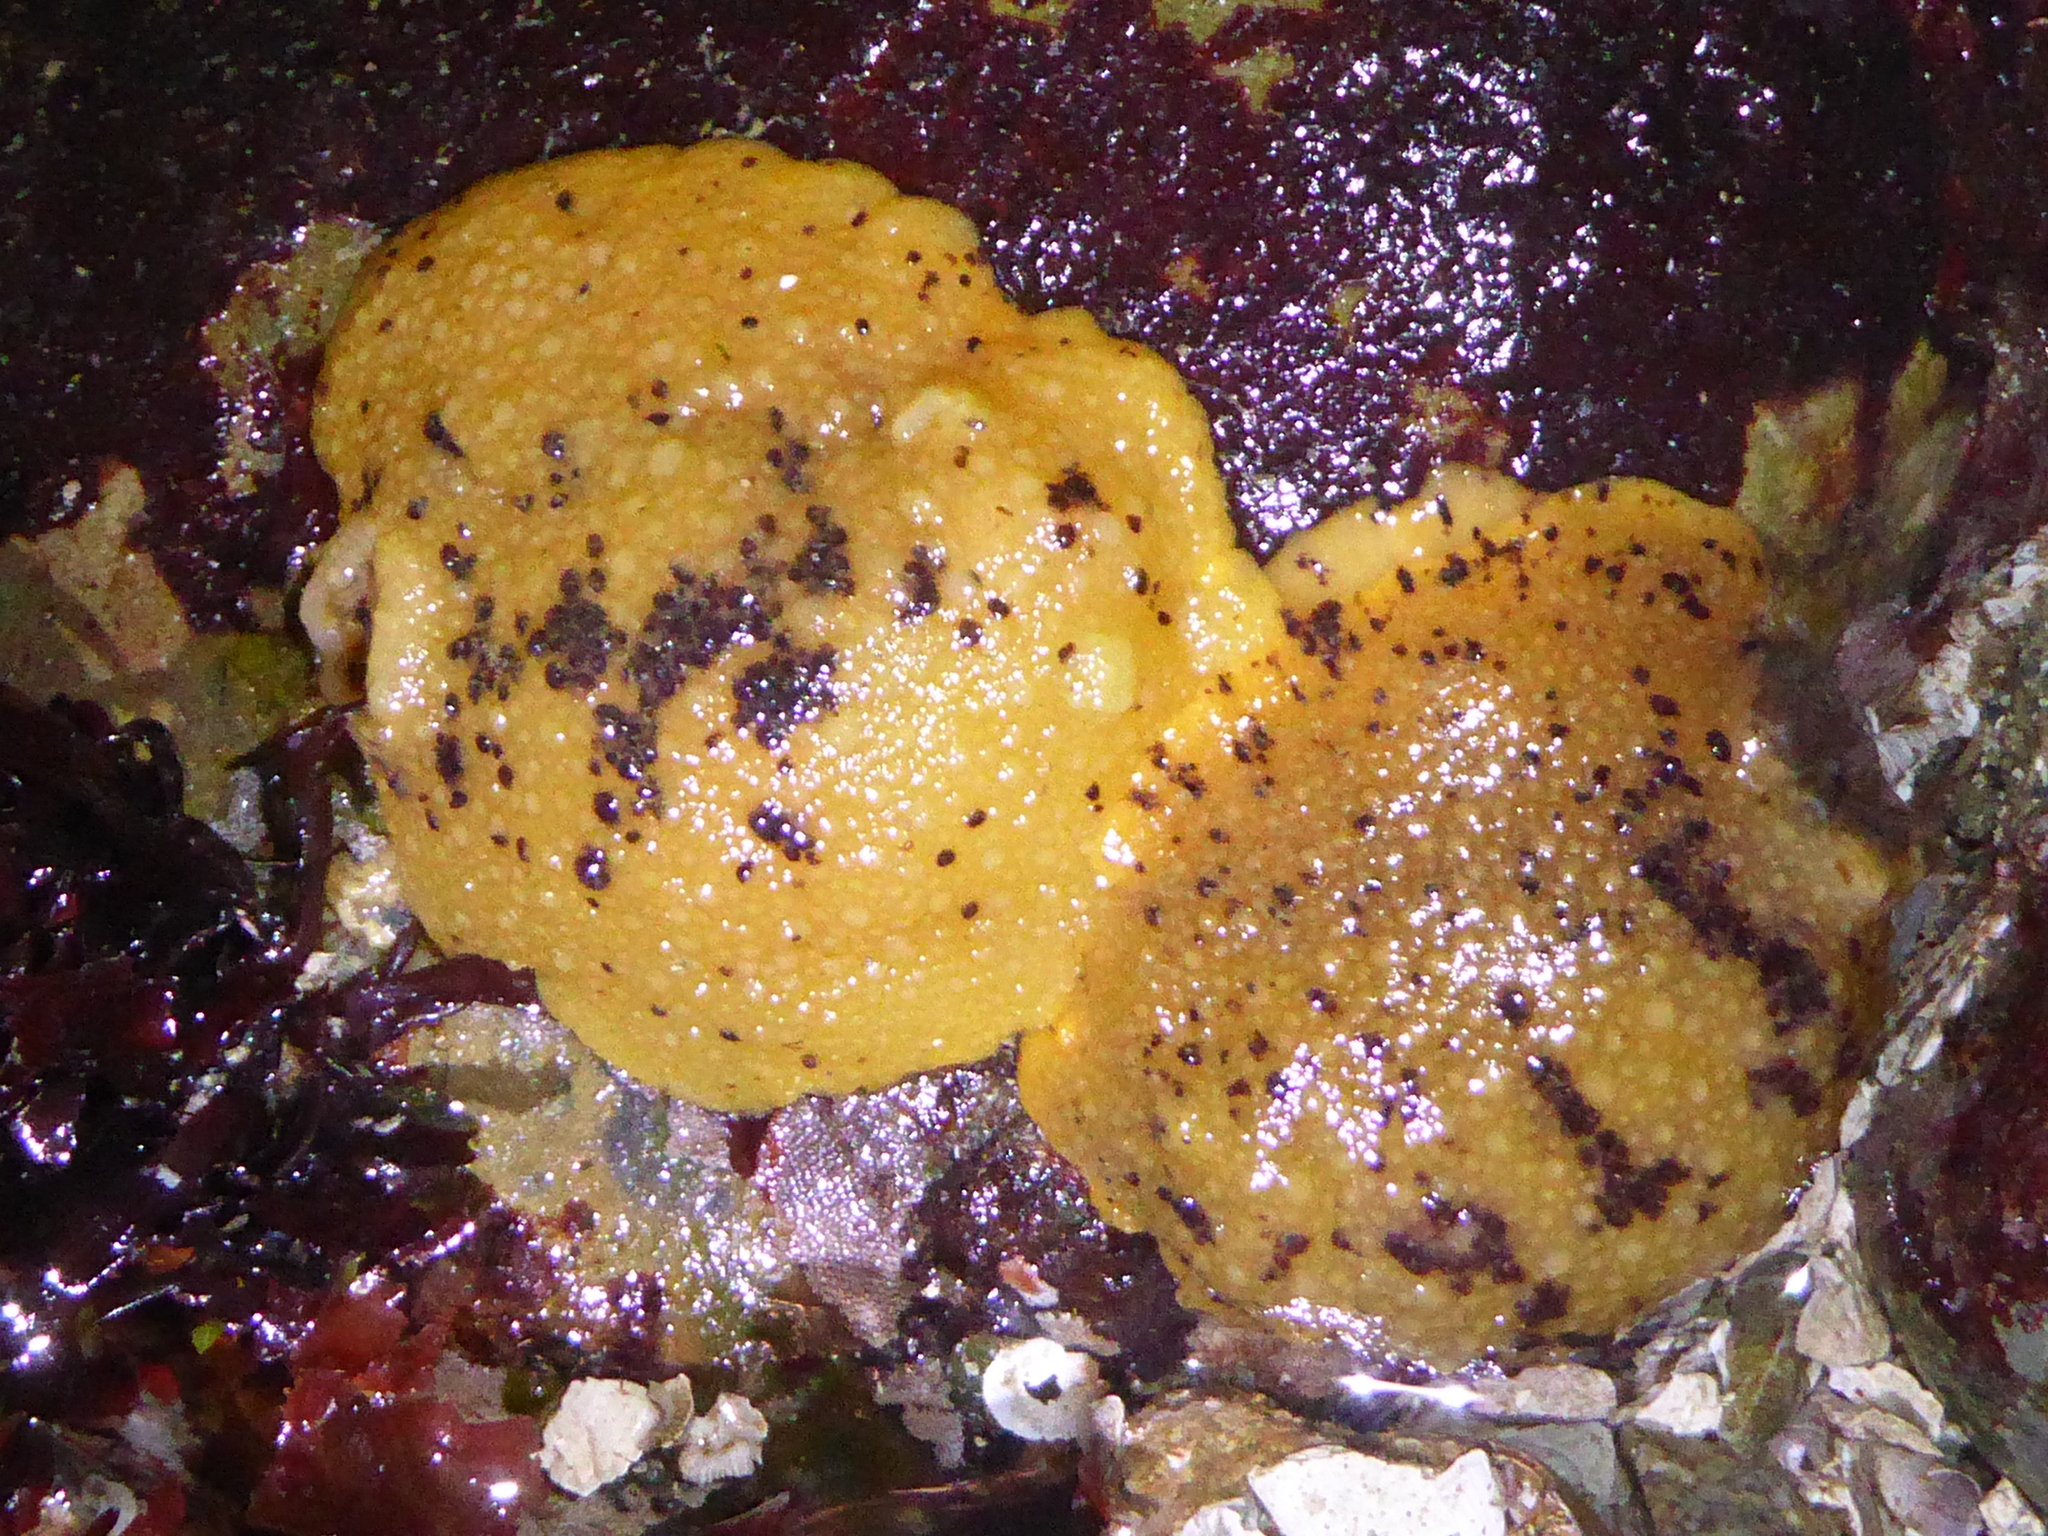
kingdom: Animalia
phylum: Mollusca
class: Gastropoda
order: Nudibranchia
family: Dorididae
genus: Doris
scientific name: Doris montereyensis
